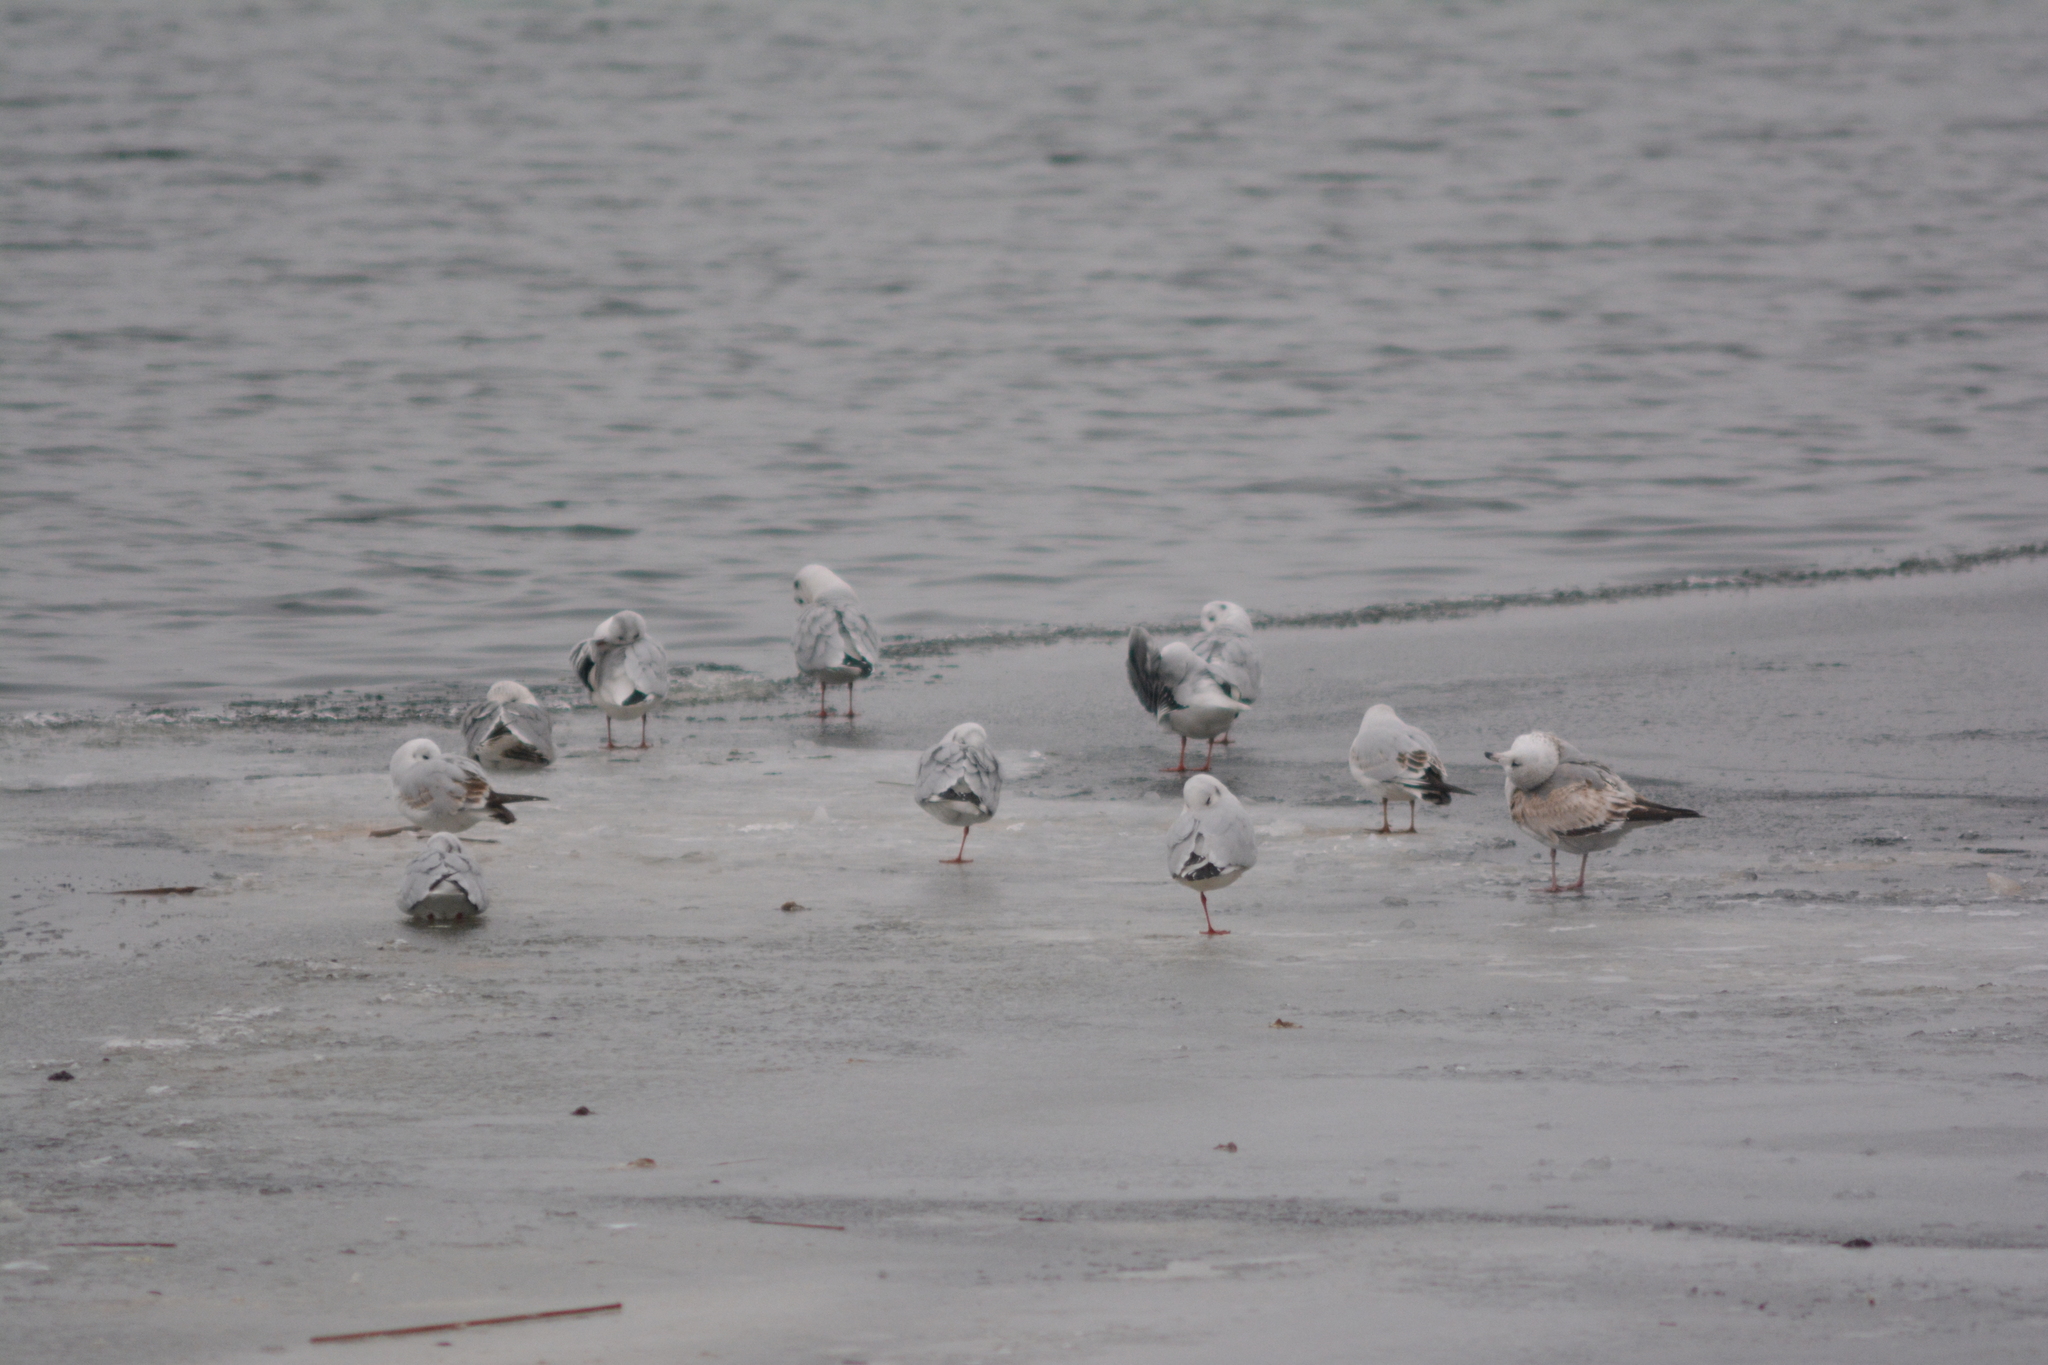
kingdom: Animalia
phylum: Chordata
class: Aves
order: Charadriiformes
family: Laridae
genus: Chroicocephalus
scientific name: Chroicocephalus ridibundus
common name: Black-headed gull
